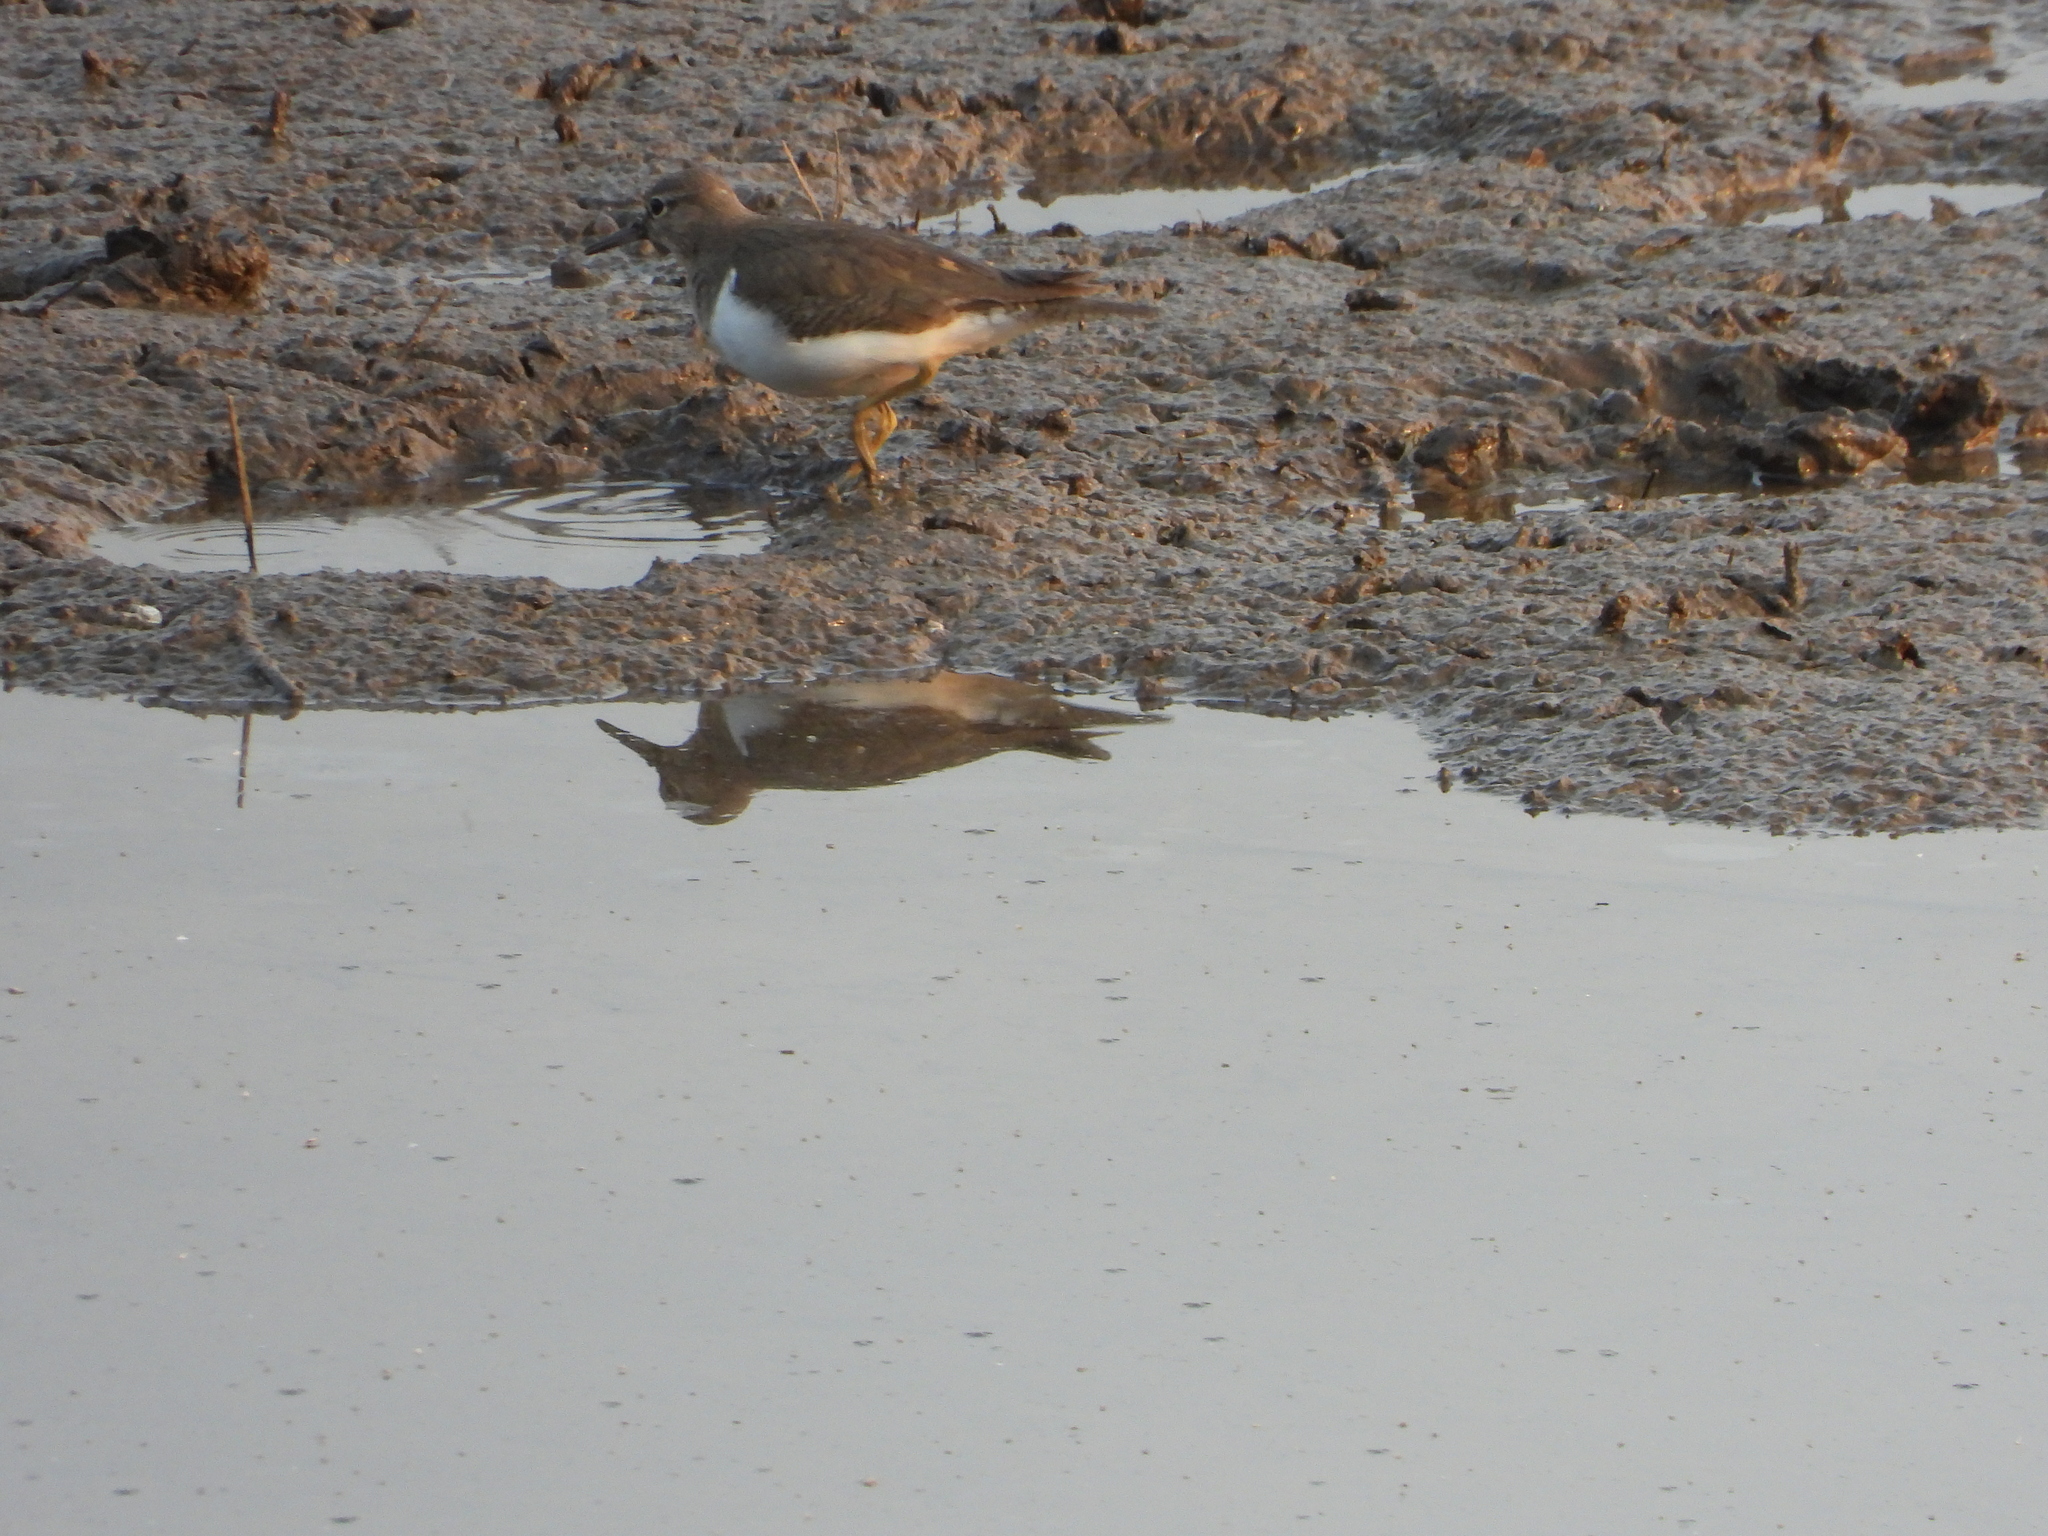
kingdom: Animalia
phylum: Chordata
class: Aves
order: Charadriiformes
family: Scolopacidae
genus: Actitis
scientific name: Actitis hypoleucos
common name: Common sandpiper
